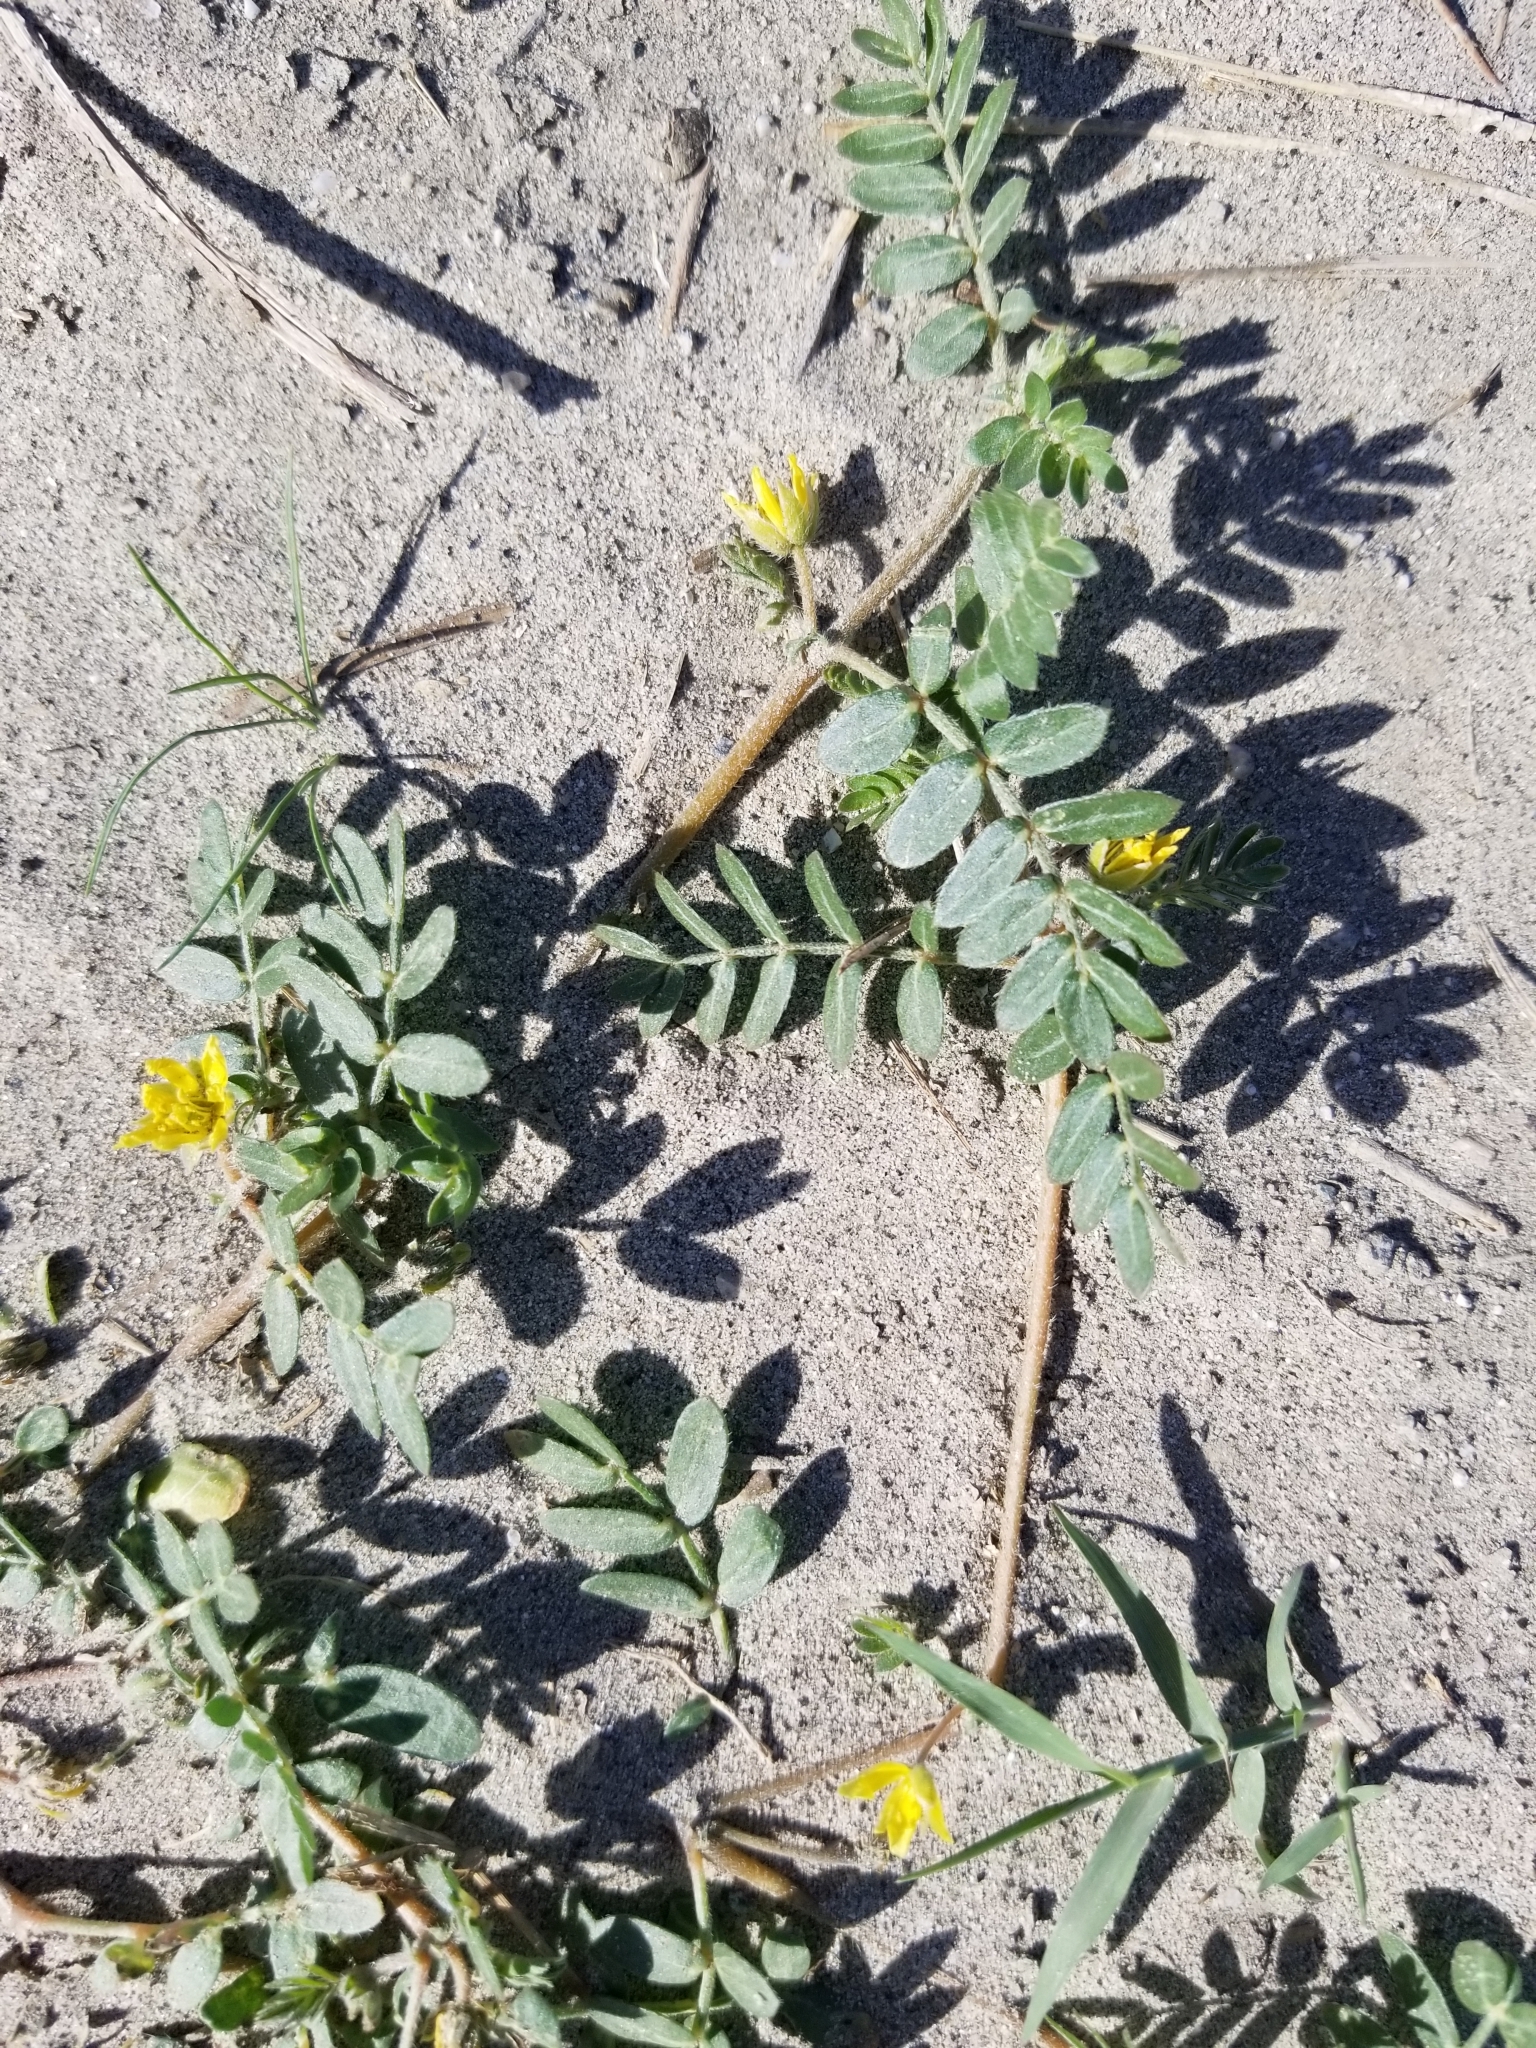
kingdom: Plantae
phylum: Tracheophyta
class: Magnoliopsida
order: Zygophyllales
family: Zygophyllaceae
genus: Tribulus
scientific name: Tribulus terrestris
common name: Puncturevine
